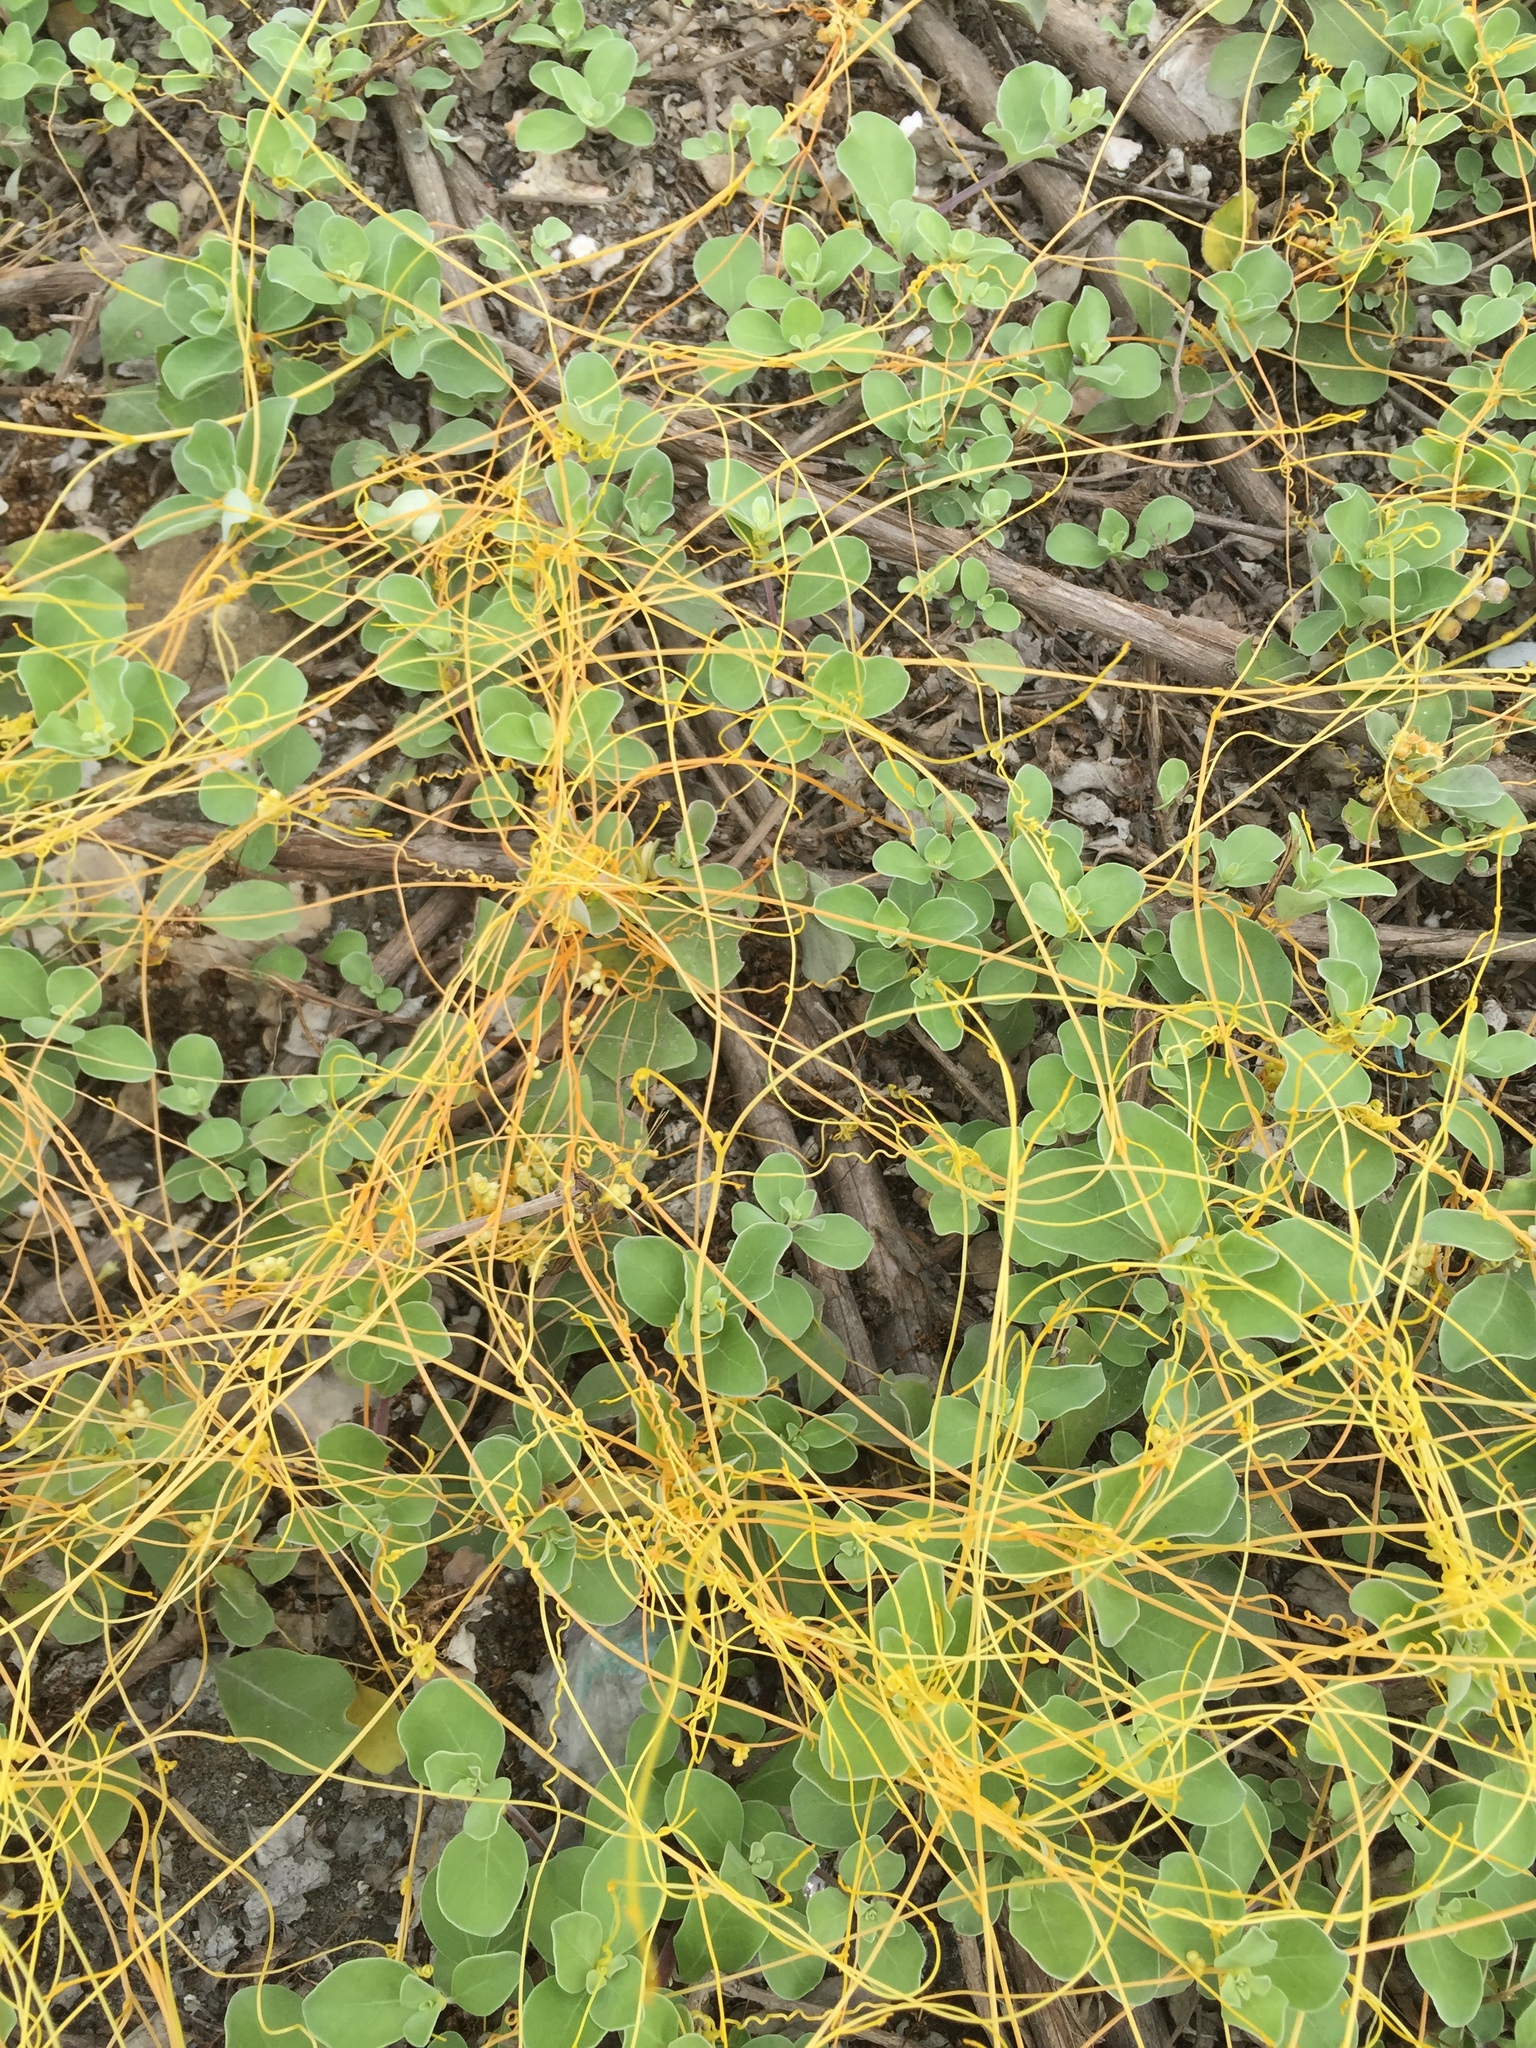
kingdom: Plantae
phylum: Tracheophyta
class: Magnoliopsida
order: Solanales
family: Convolvulaceae
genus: Cuscuta
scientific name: Cuscuta campestris
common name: Yellow dodder
